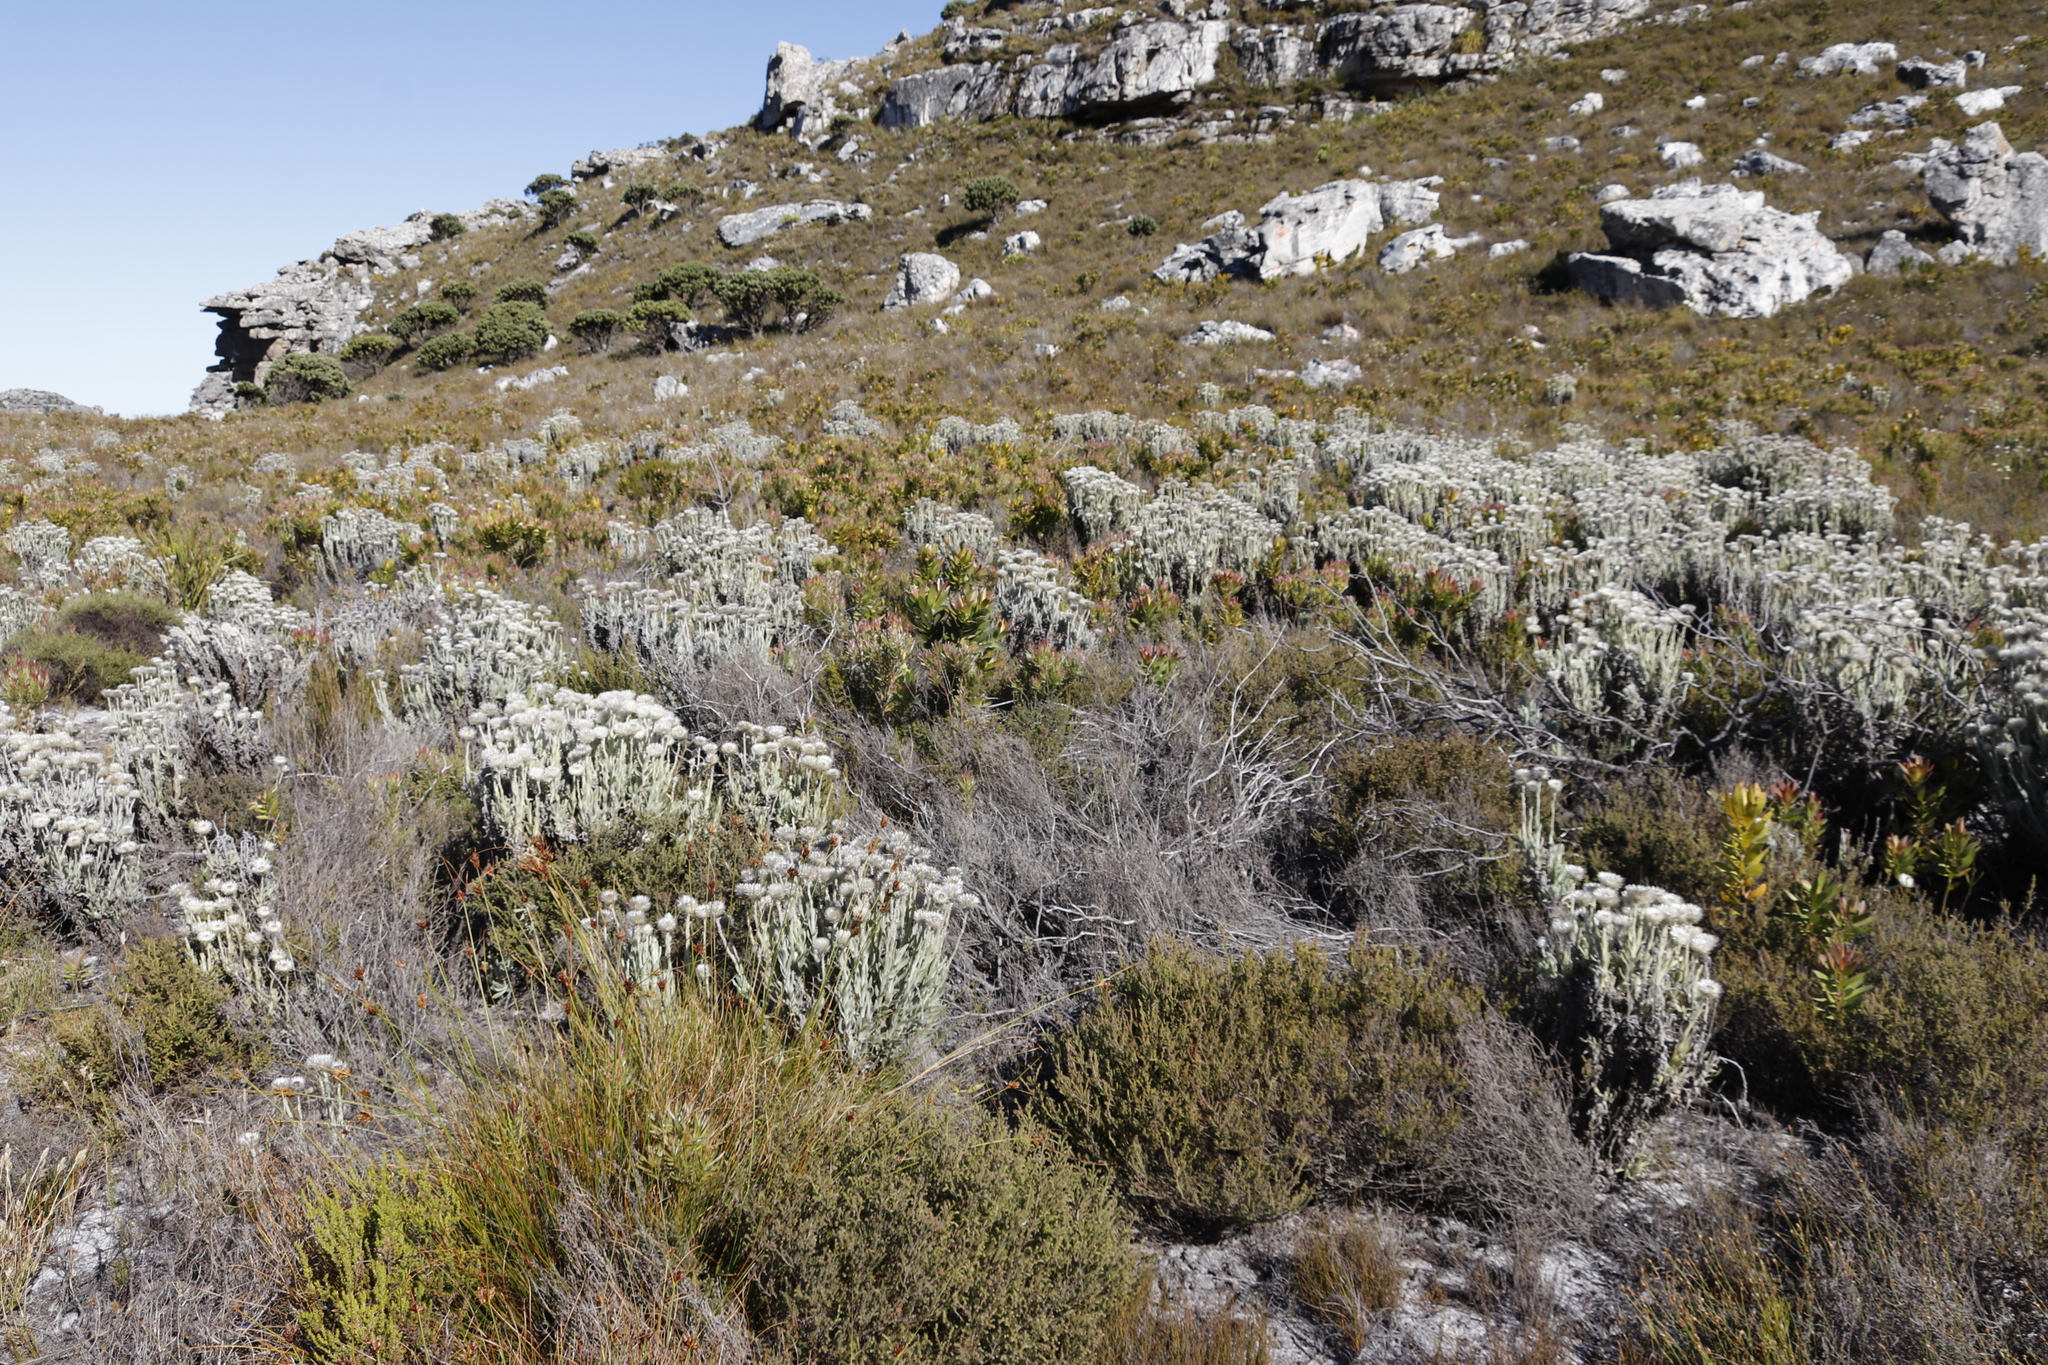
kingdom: Plantae
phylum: Tracheophyta
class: Magnoliopsida
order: Asterales
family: Asteraceae
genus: Syncarpha
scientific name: Syncarpha vestita
